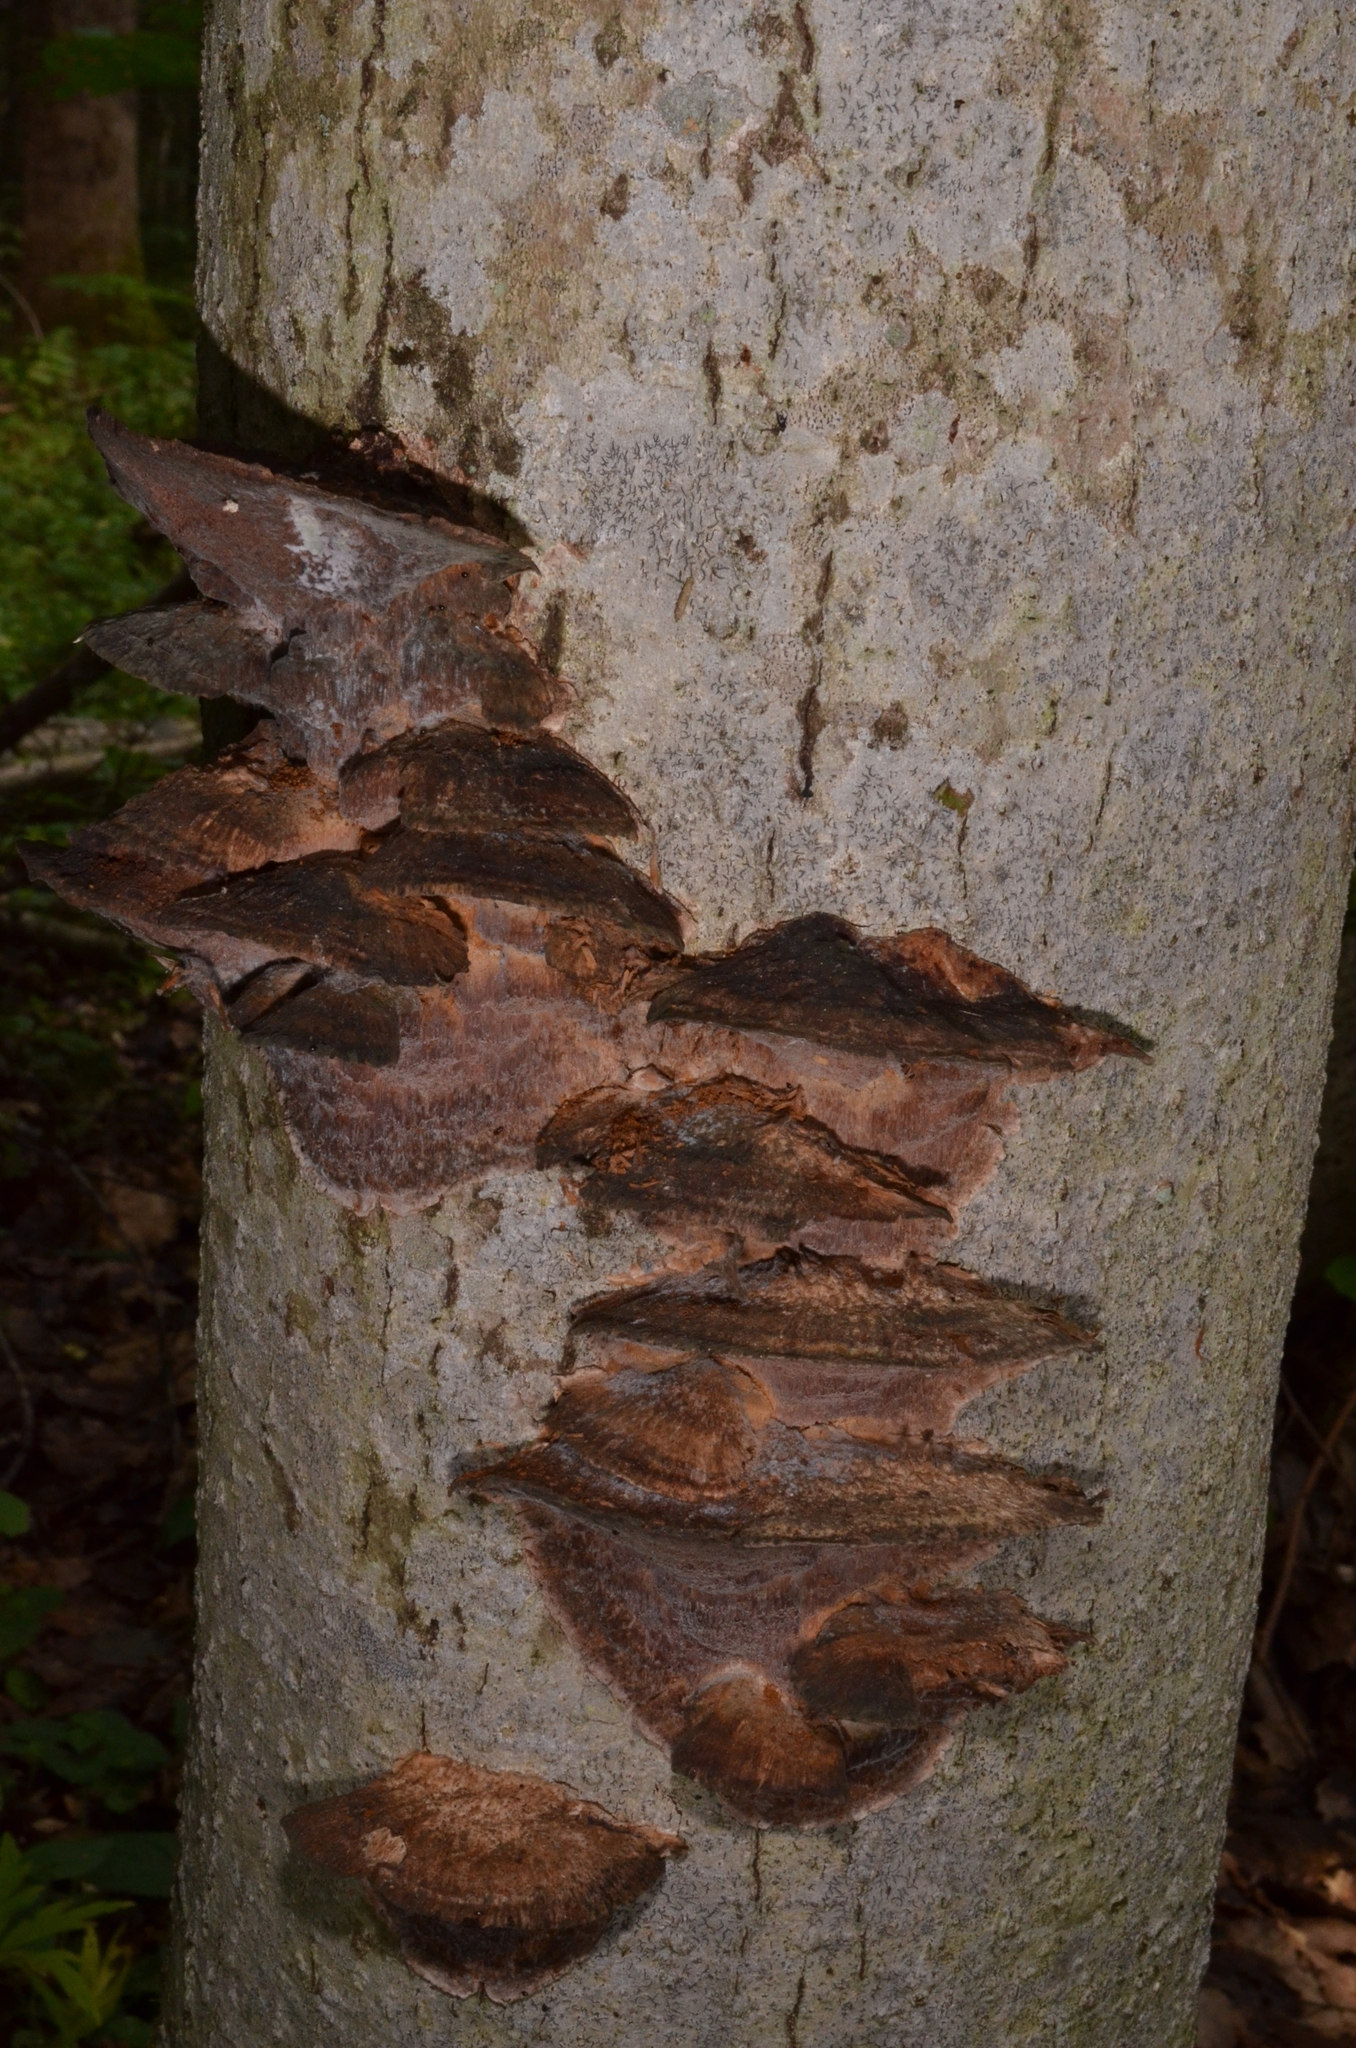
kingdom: Fungi
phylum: Basidiomycota
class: Agaricomycetes
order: Hymenochaetales
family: Hymenochaetaceae
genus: Xanthoporia
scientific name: Xanthoporia radiata
